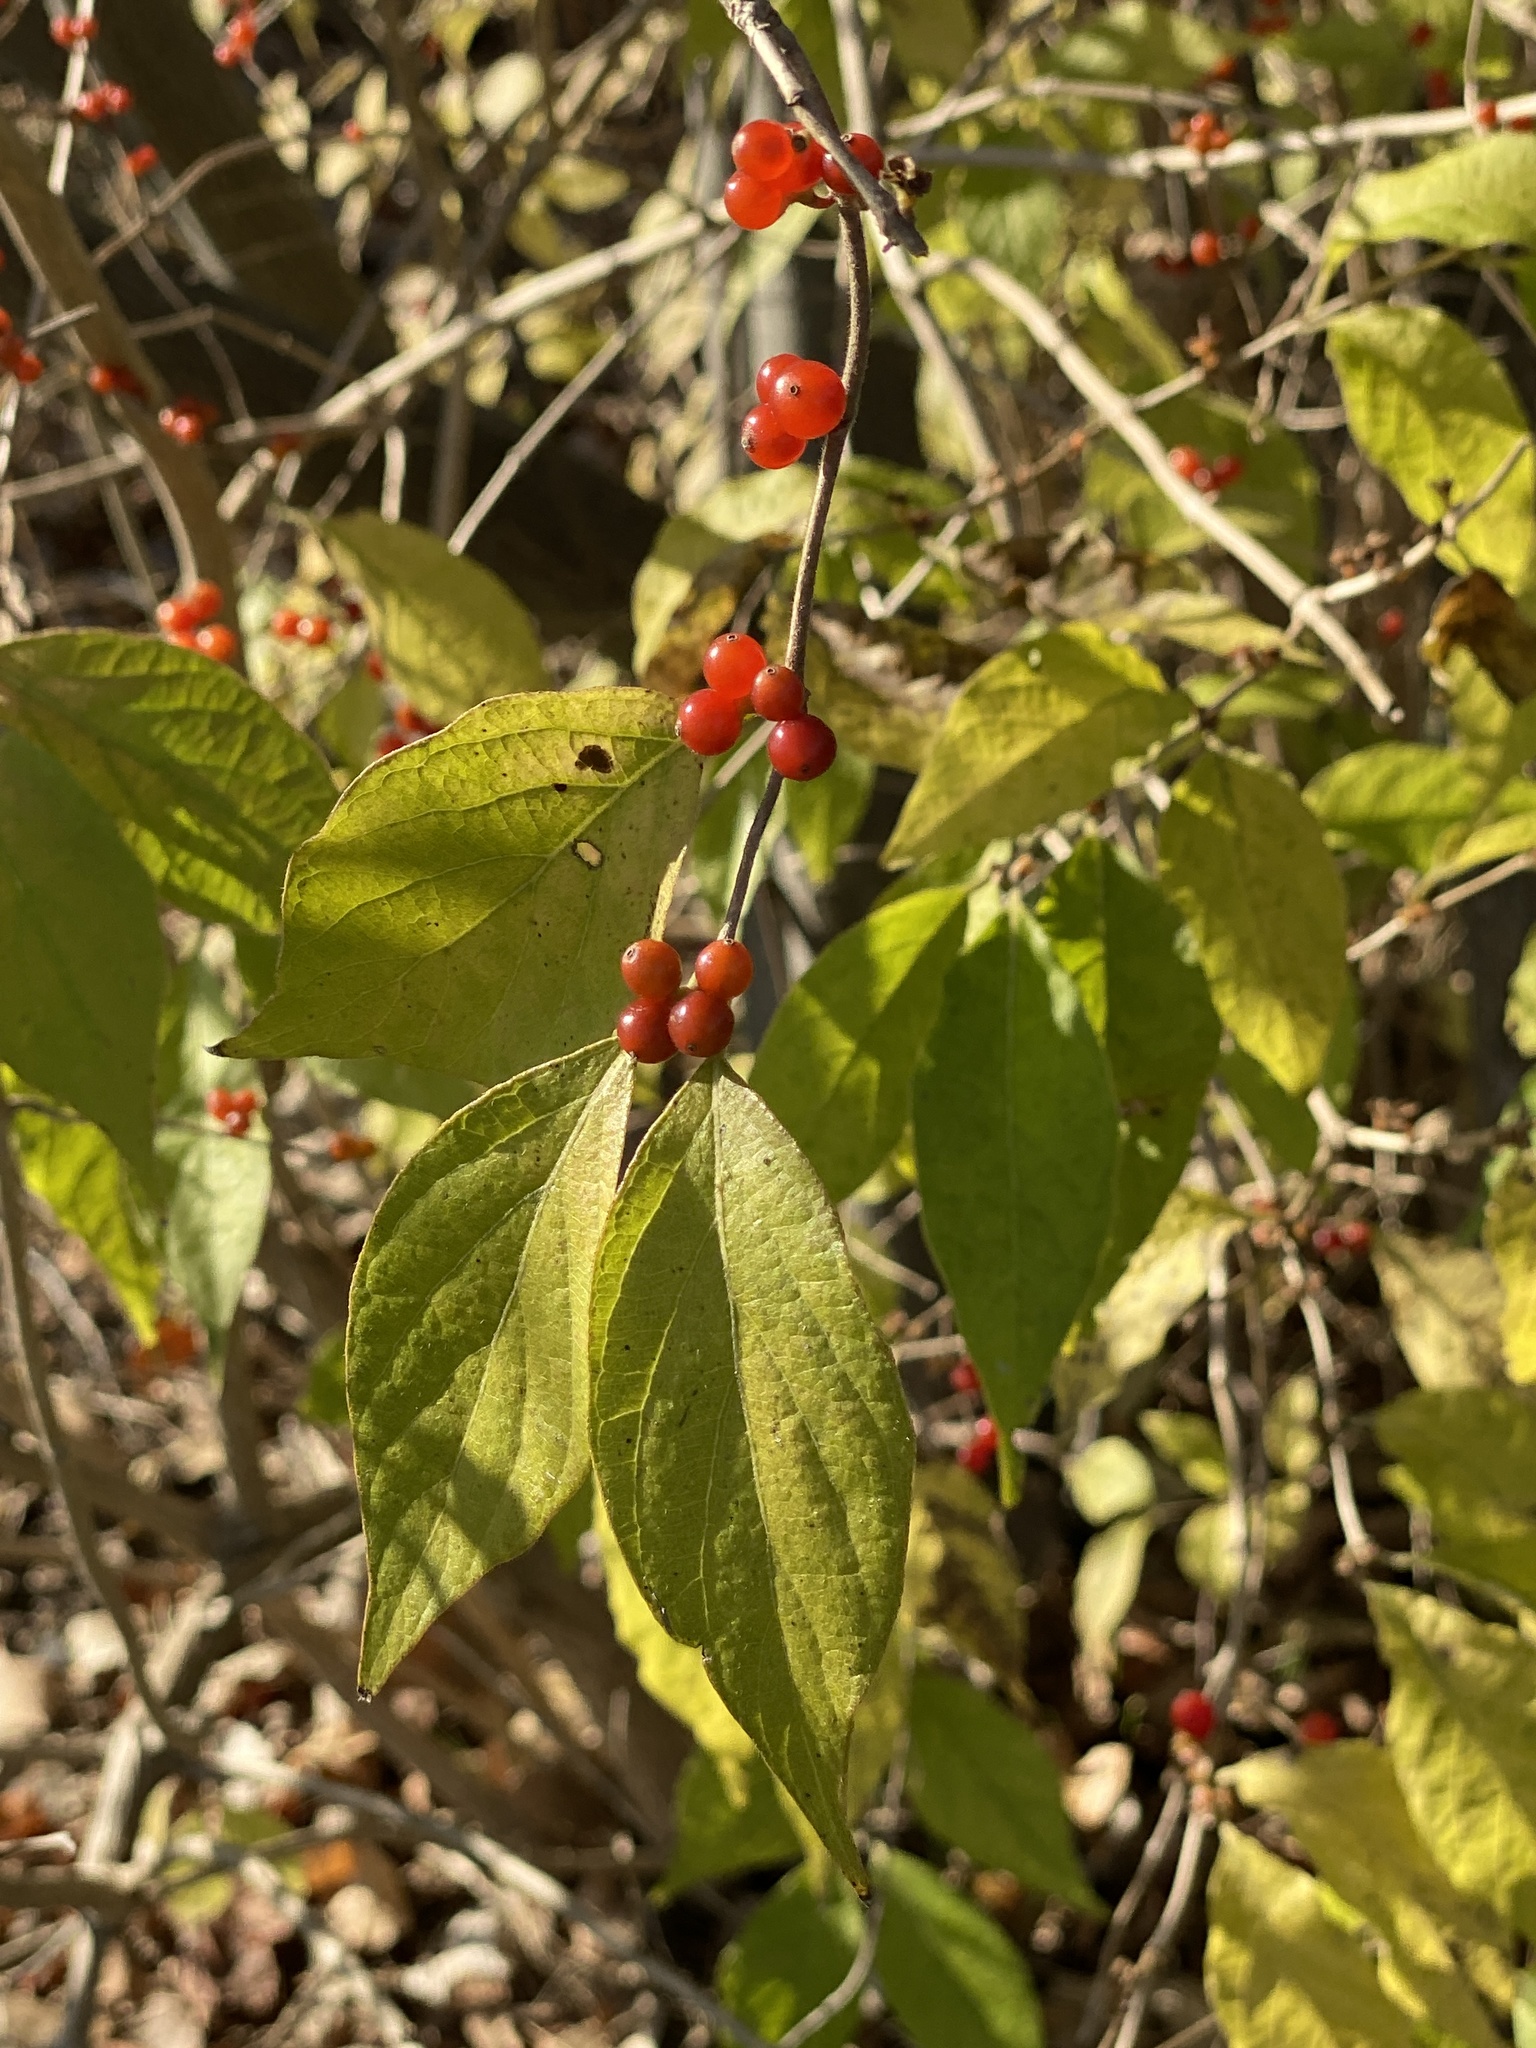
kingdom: Plantae
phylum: Tracheophyta
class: Magnoliopsida
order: Dipsacales
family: Caprifoliaceae
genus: Lonicera
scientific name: Lonicera maackii
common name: Amur honeysuckle
